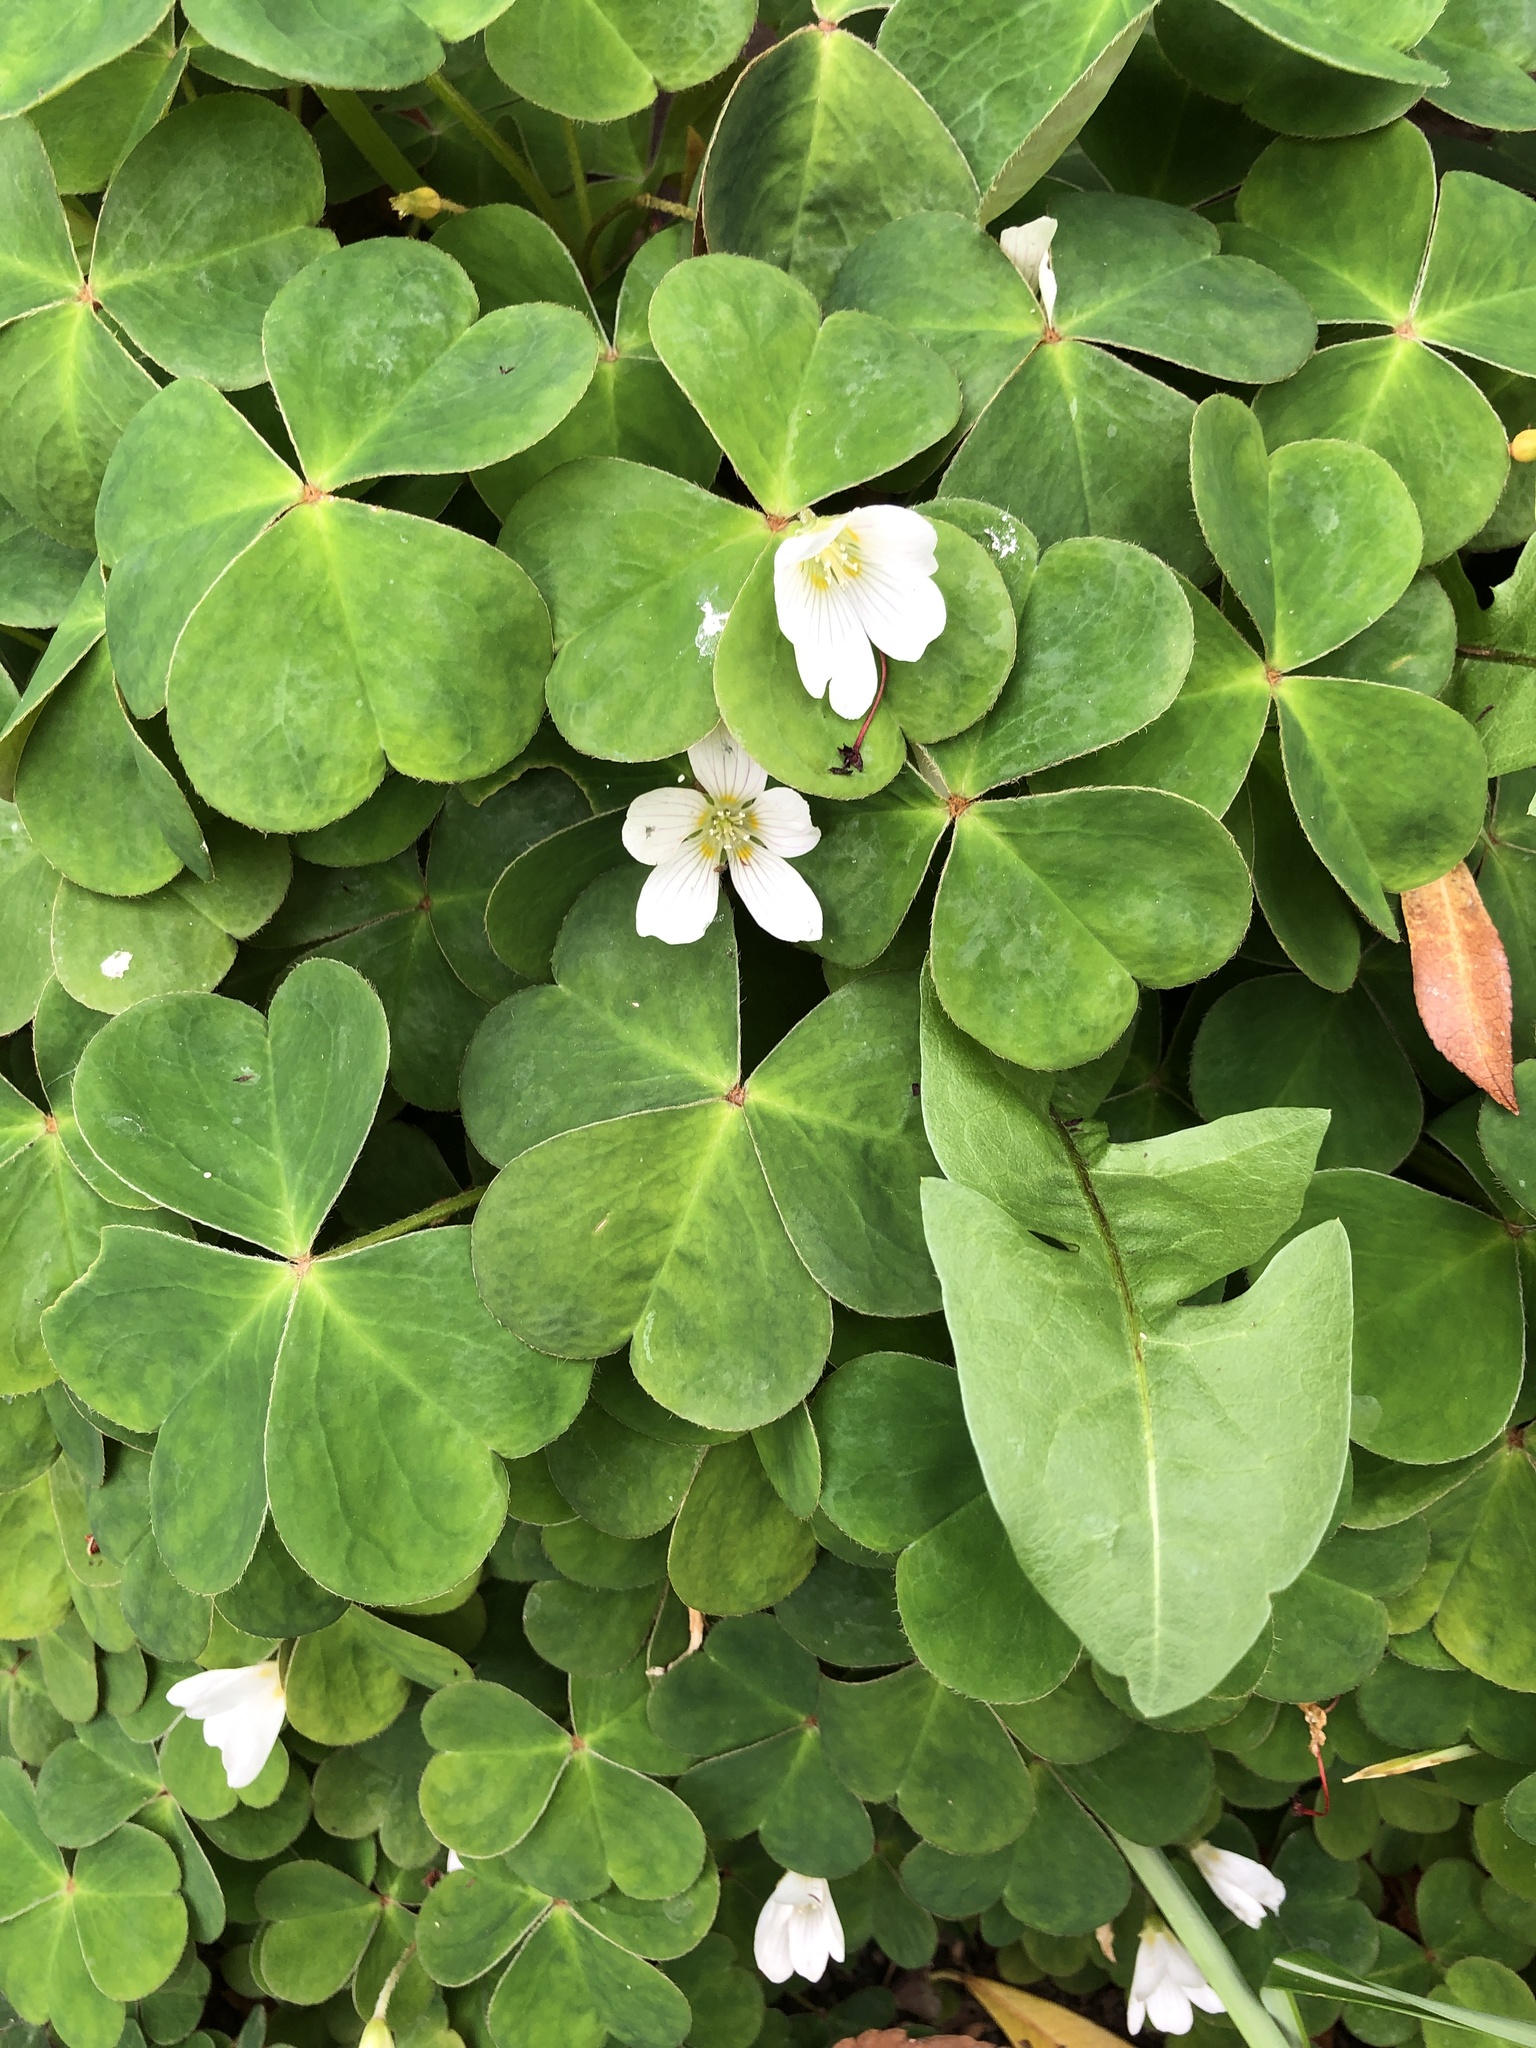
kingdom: Plantae
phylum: Tracheophyta
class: Magnoliopsida
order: Oxalidales
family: Oxalidaceae
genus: Oxalis
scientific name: Oxalis oregana
